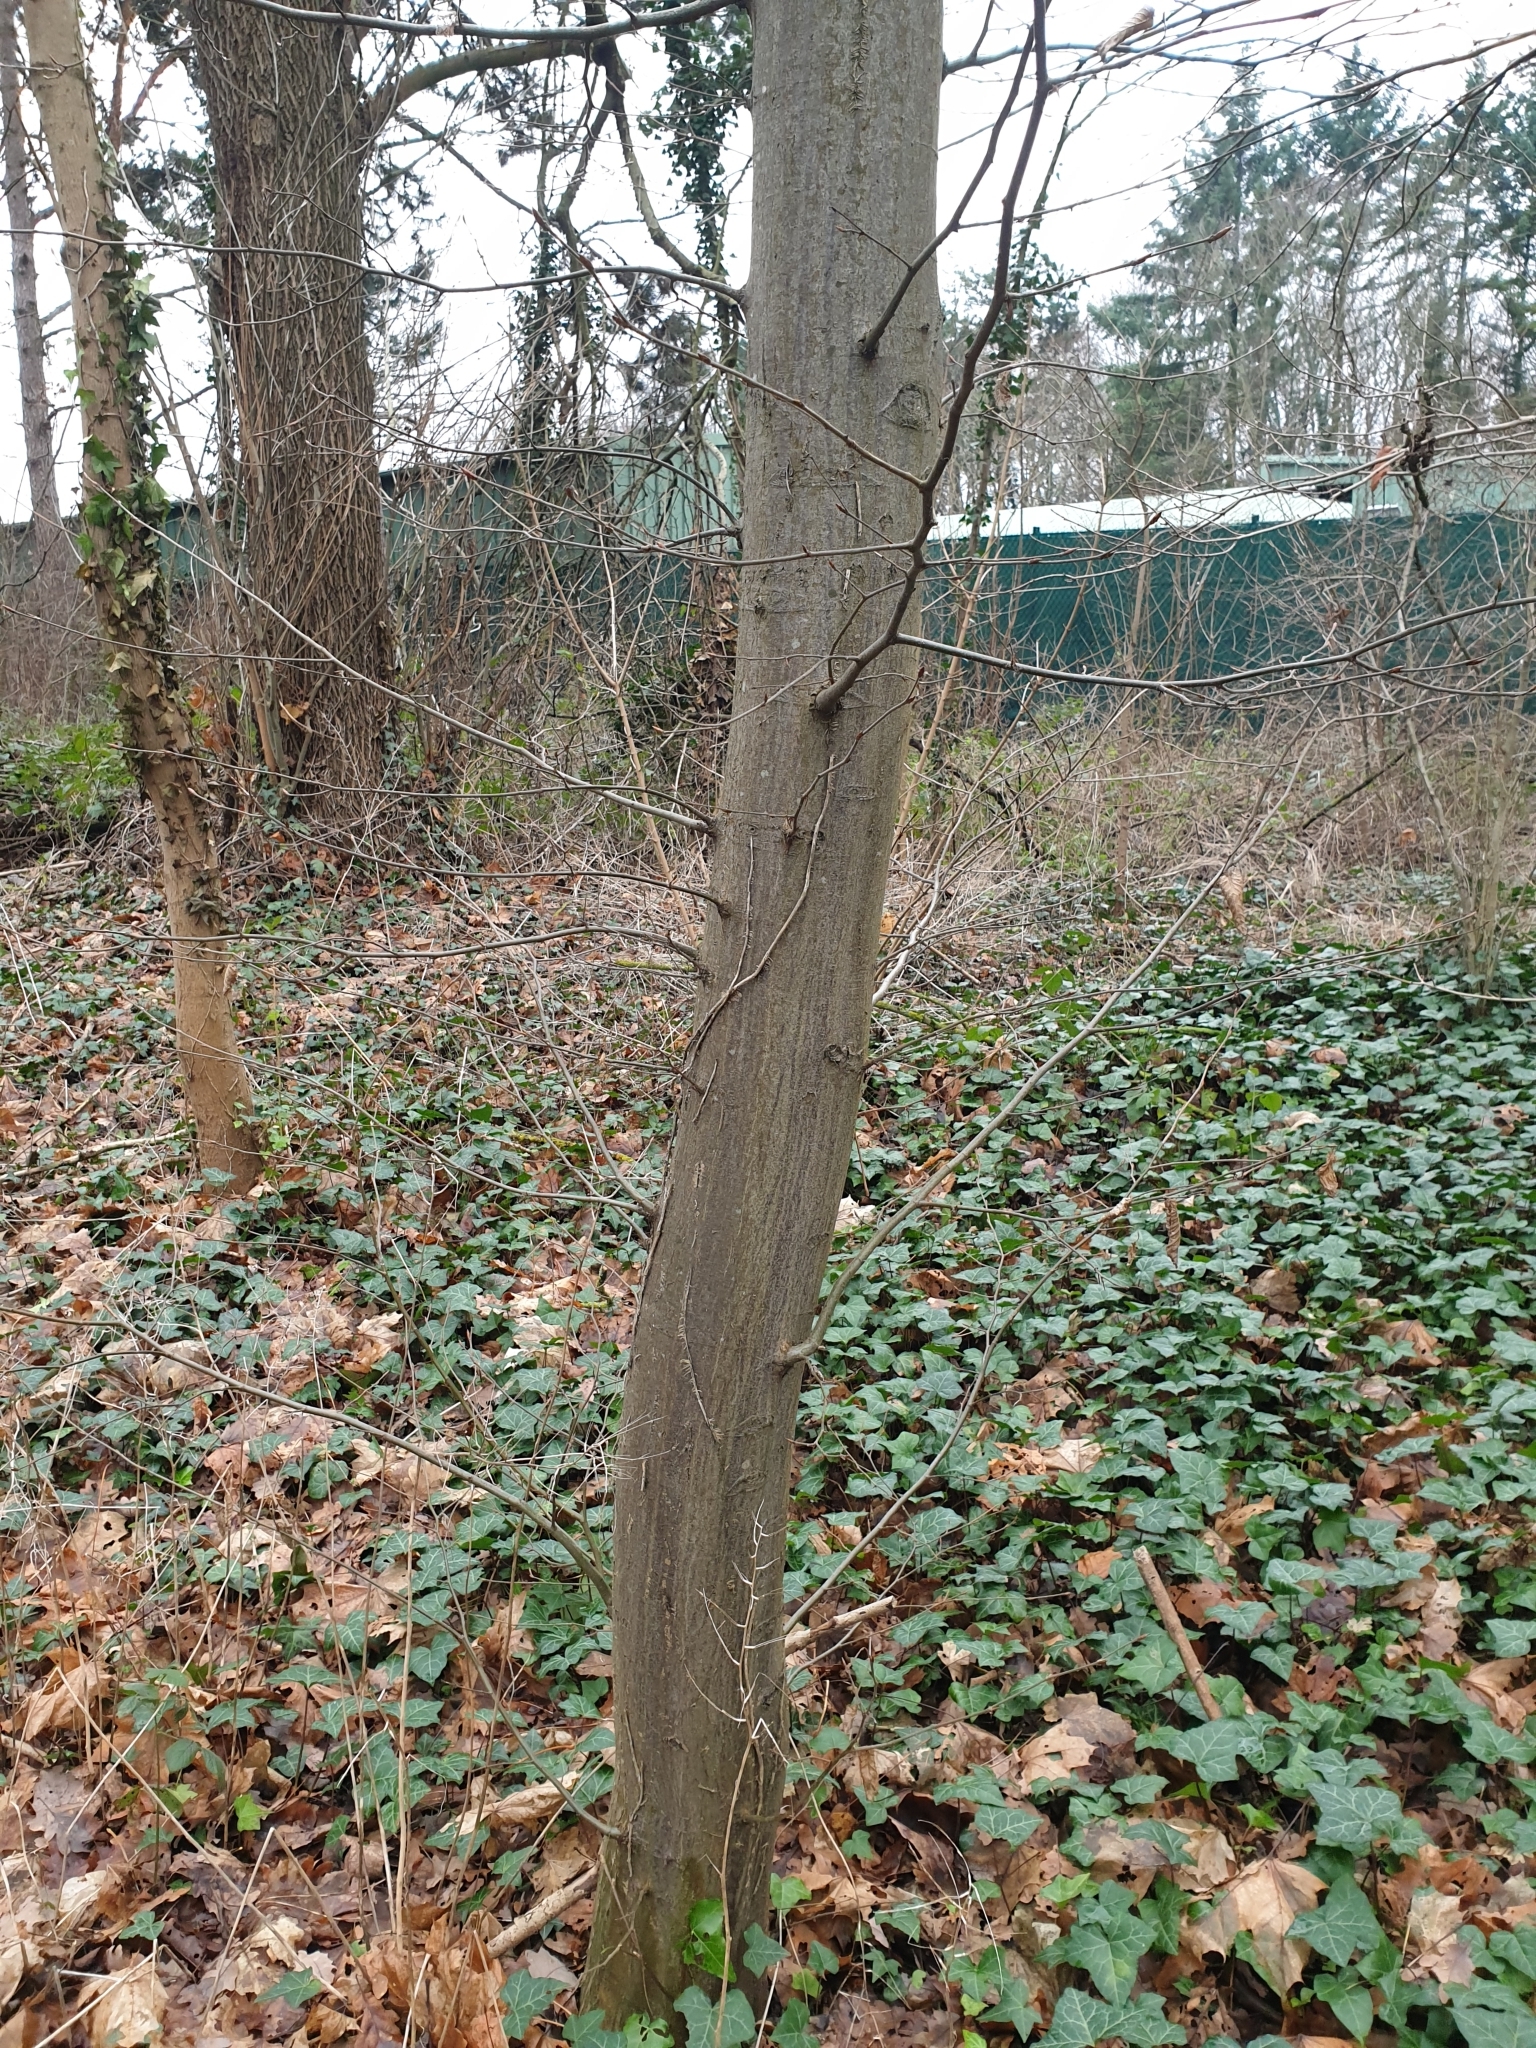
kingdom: Plantae
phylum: Tracheophyta
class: Magnoliopsida
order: Fagales
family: Betulaceae
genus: Carpinus
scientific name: Carpinus betulus
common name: Hornbeam
